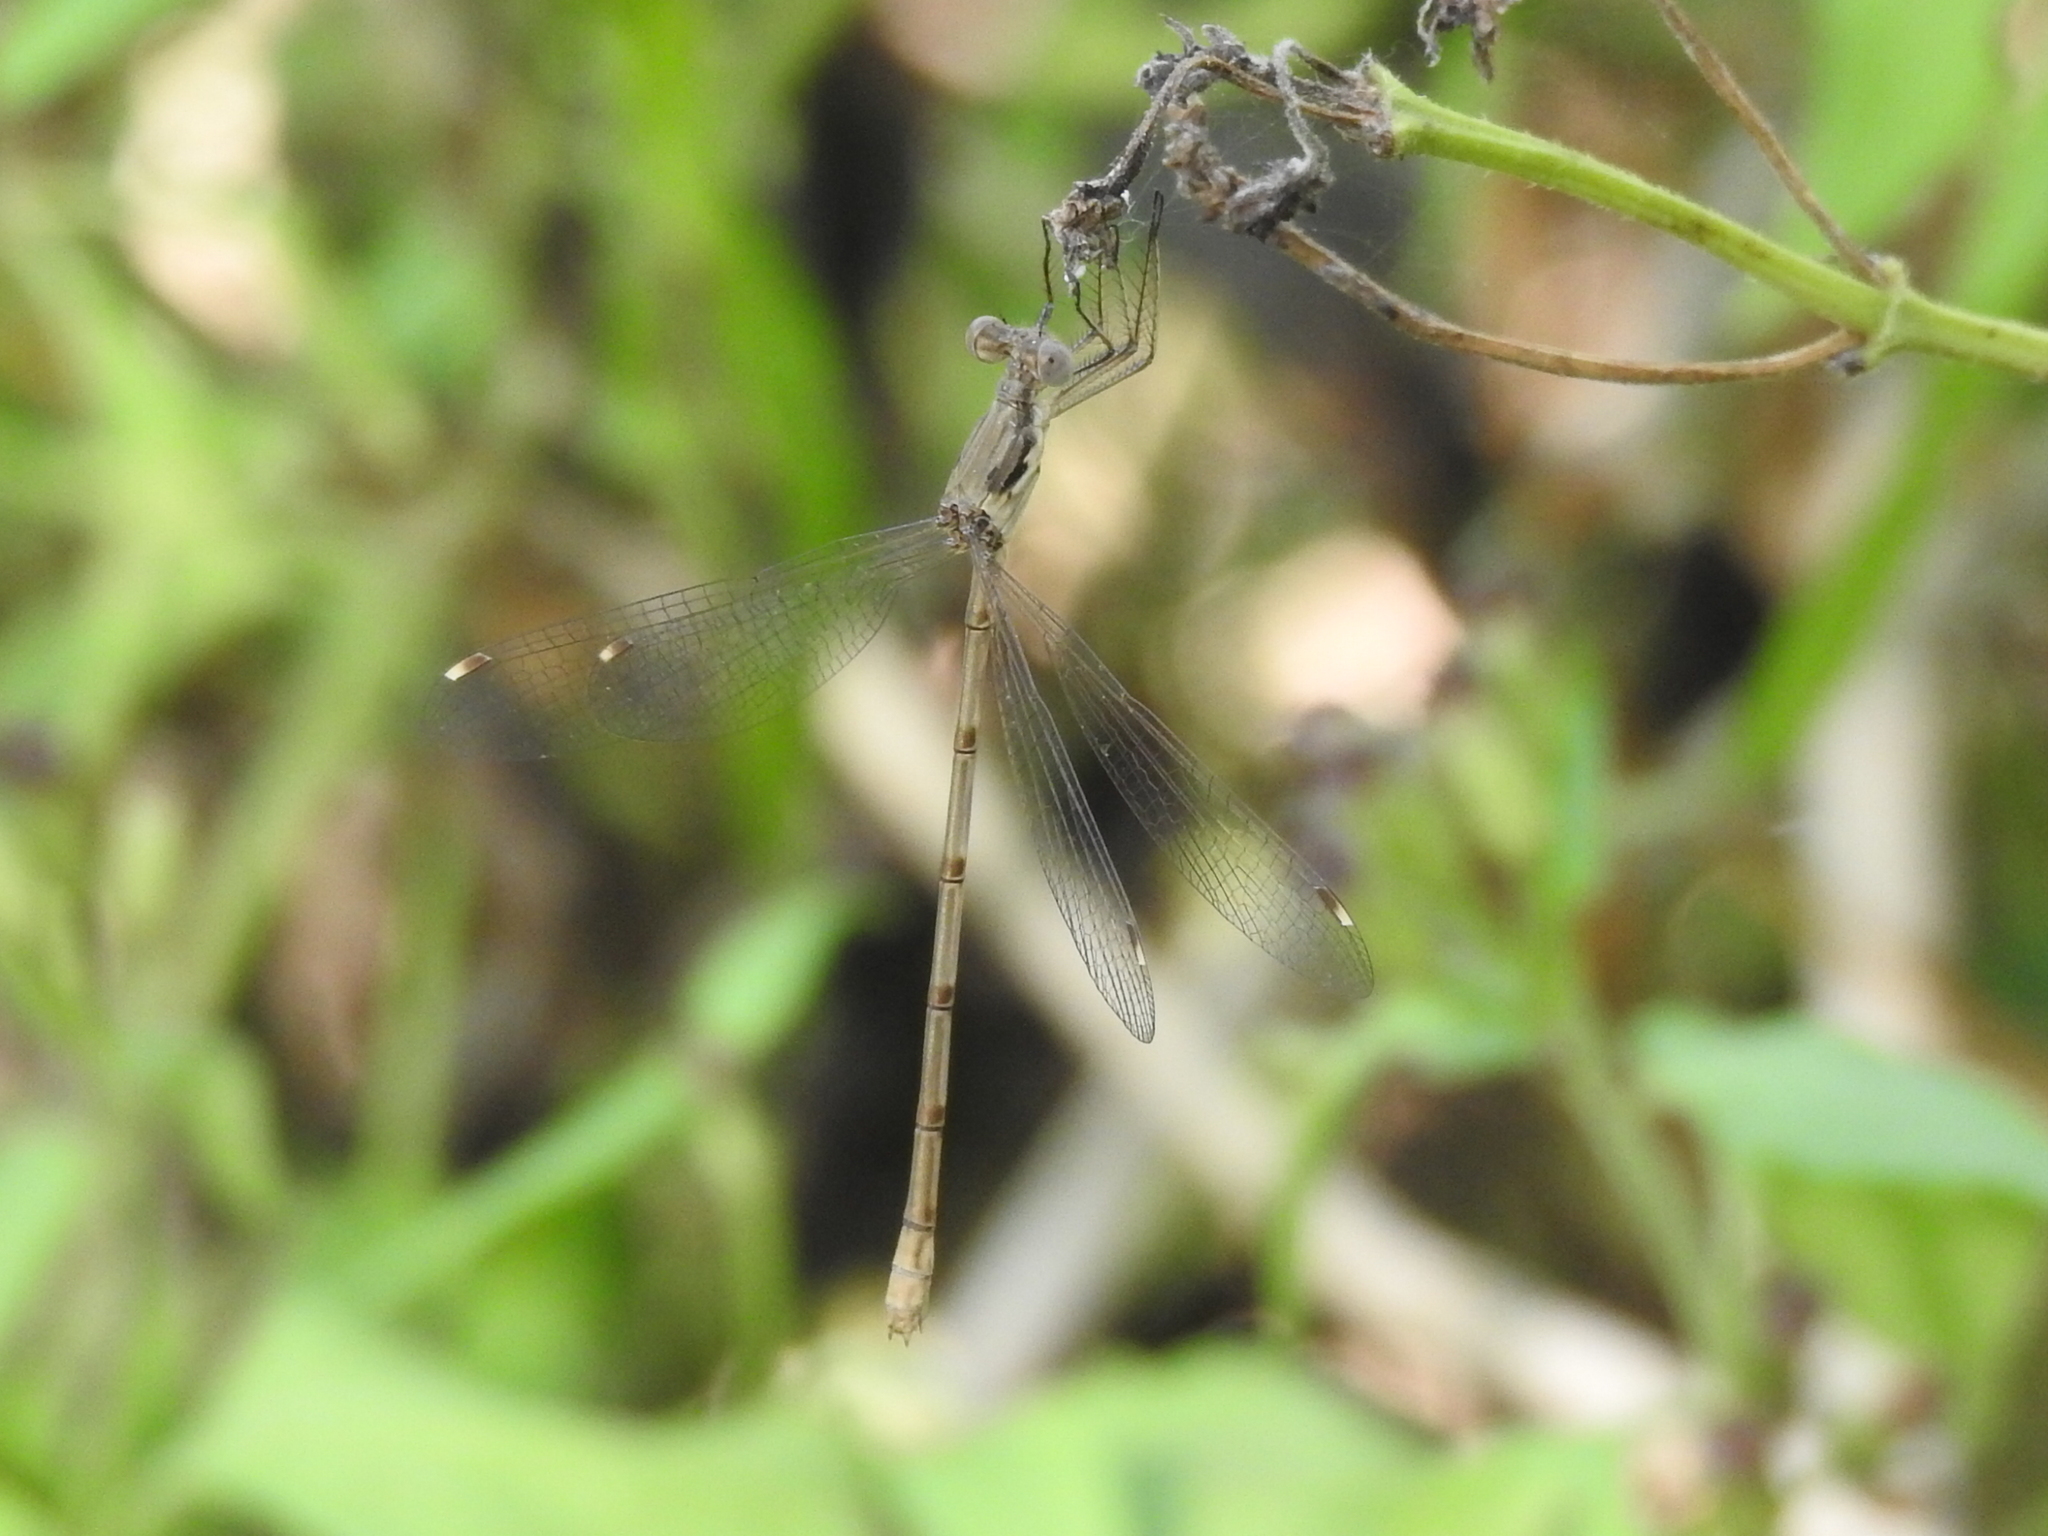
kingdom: Animalia
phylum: Arthropoda
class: Insecta
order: Odonata
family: Lestidae
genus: Lestes
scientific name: Lestes australis
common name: Southern spreadwing
